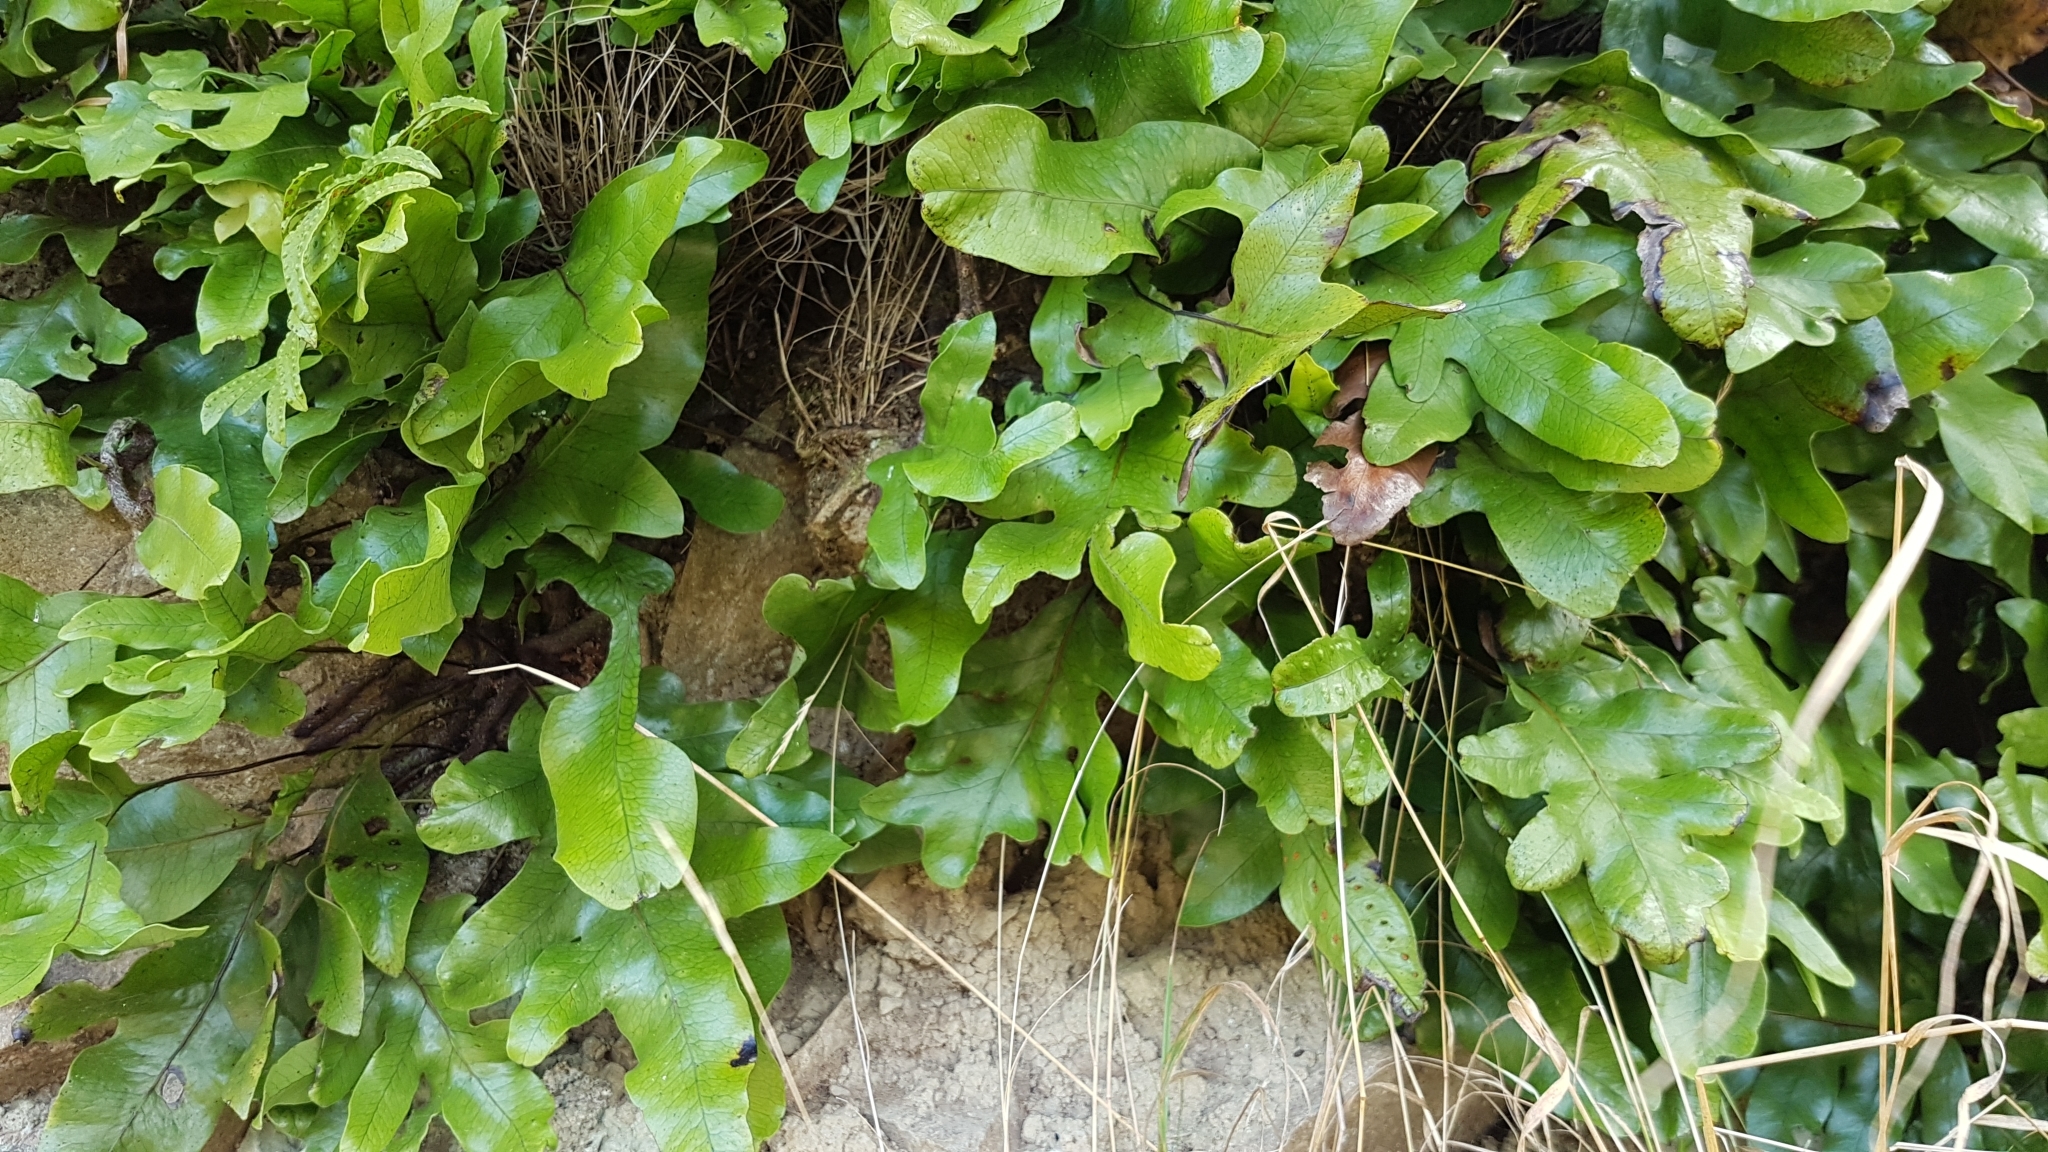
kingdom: Plantae
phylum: Tracheophyta
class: Polypodiopsida
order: Polypodiales
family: Polypodiaceae
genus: Lecanopteris
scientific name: Lecanopteris pustulata
